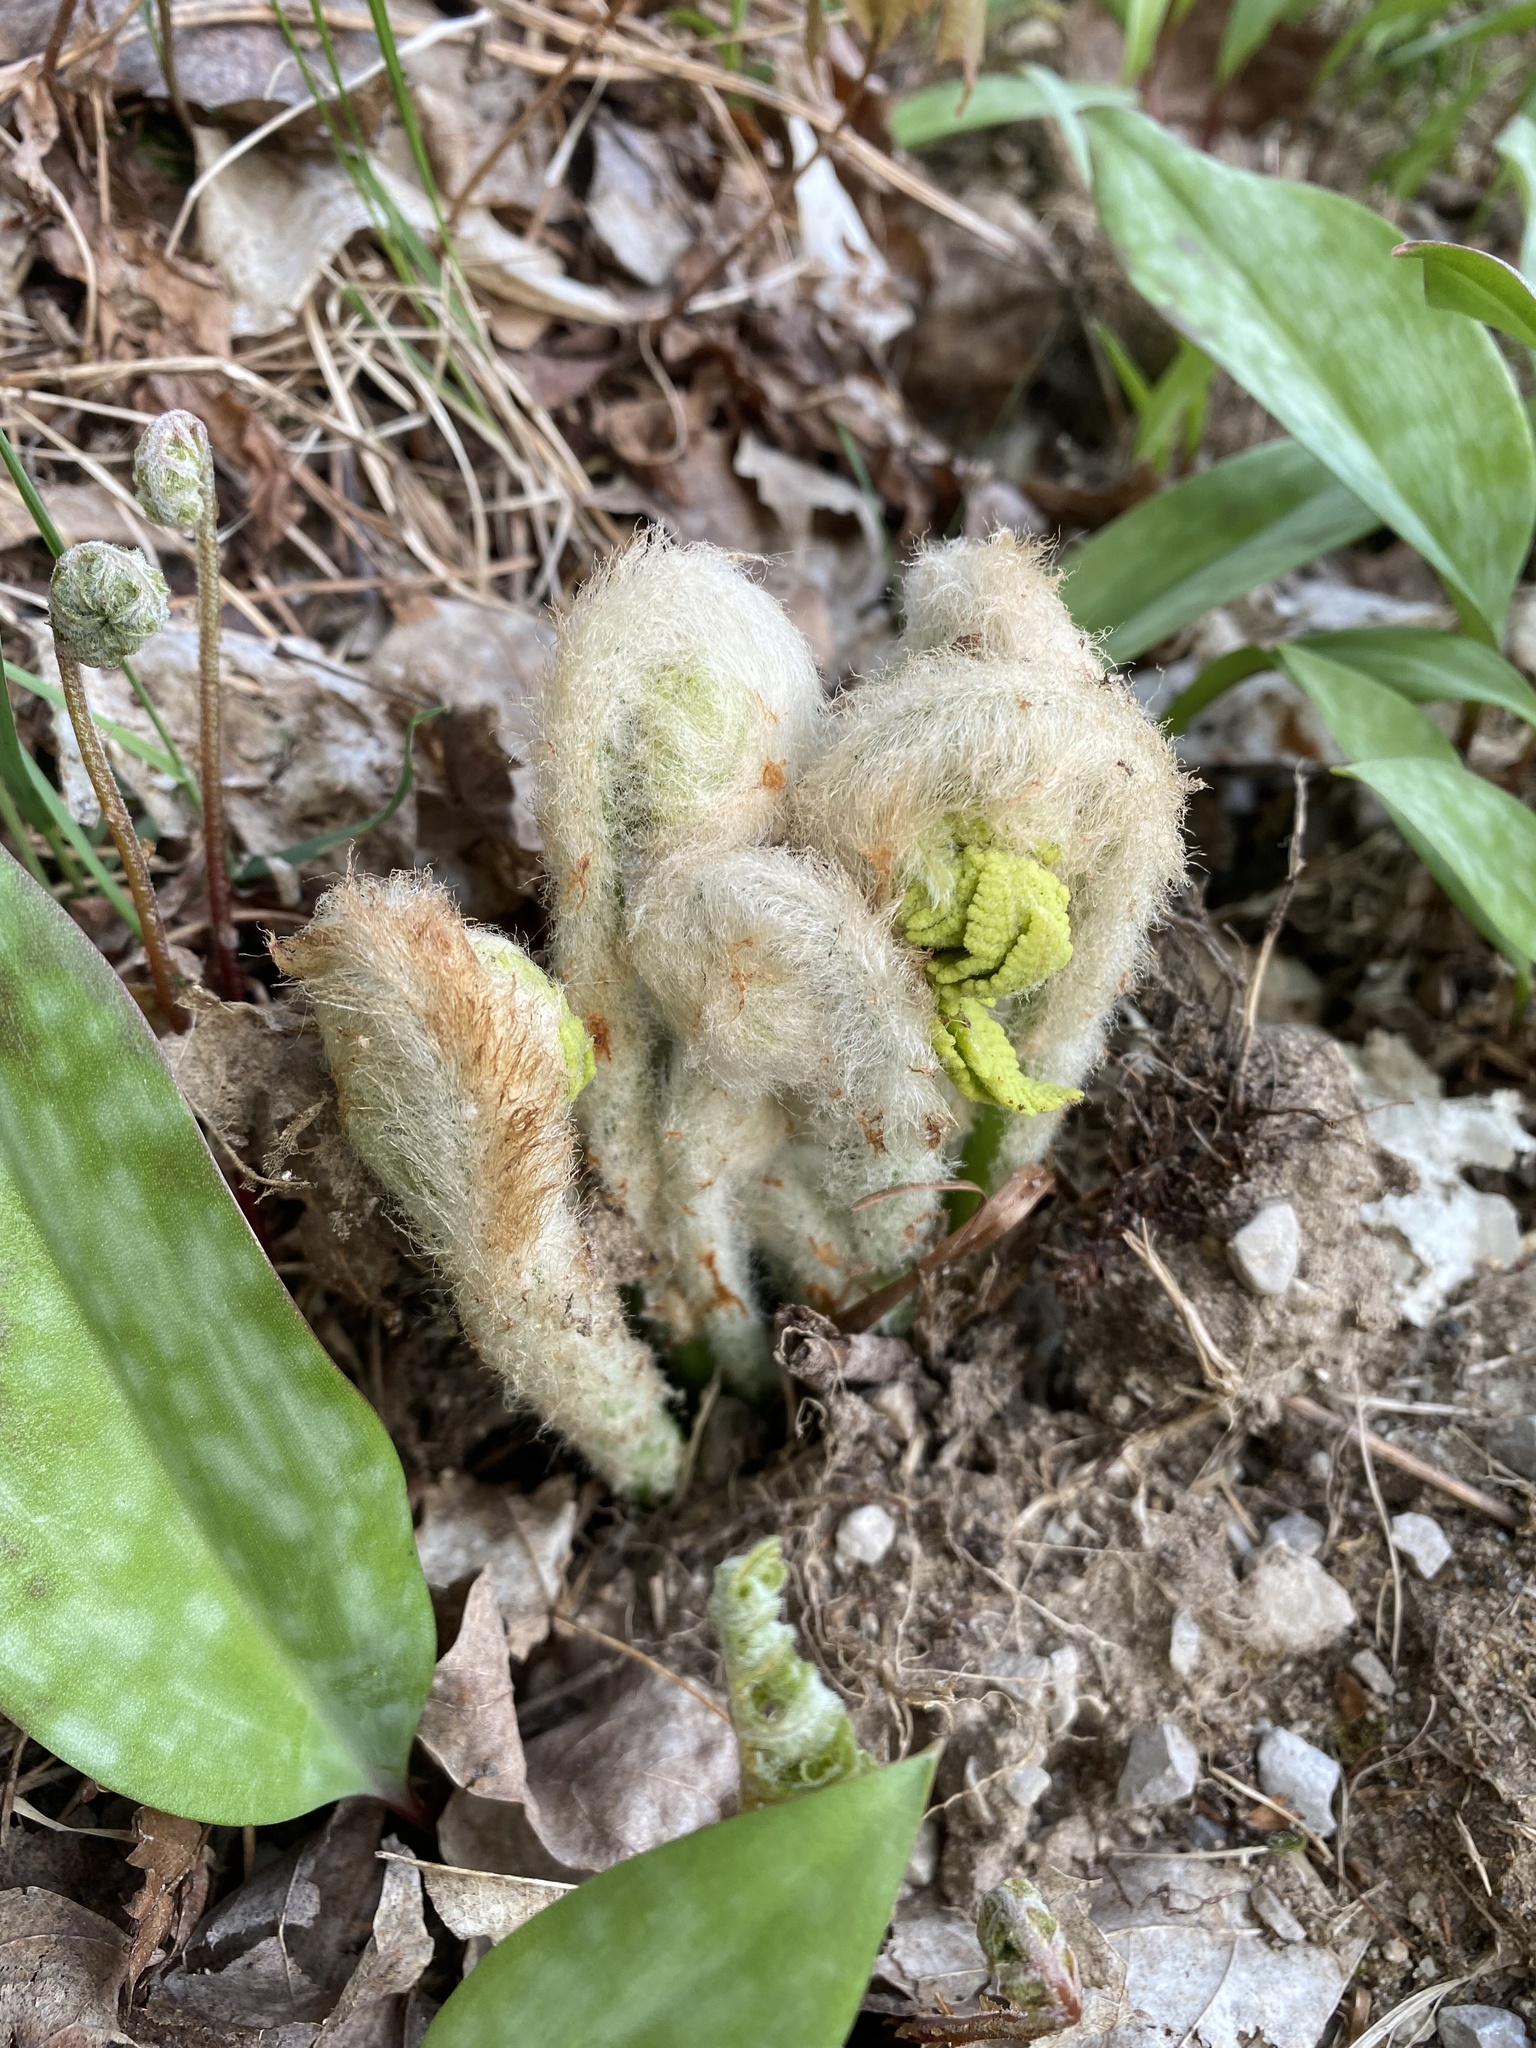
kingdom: Plantae
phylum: Tracheophyta
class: Polypodiopsida
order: Osmundales
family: Osmundaceae
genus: Claytosmunda
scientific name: Claytosmunda claytoniana
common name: Clayton's fern
